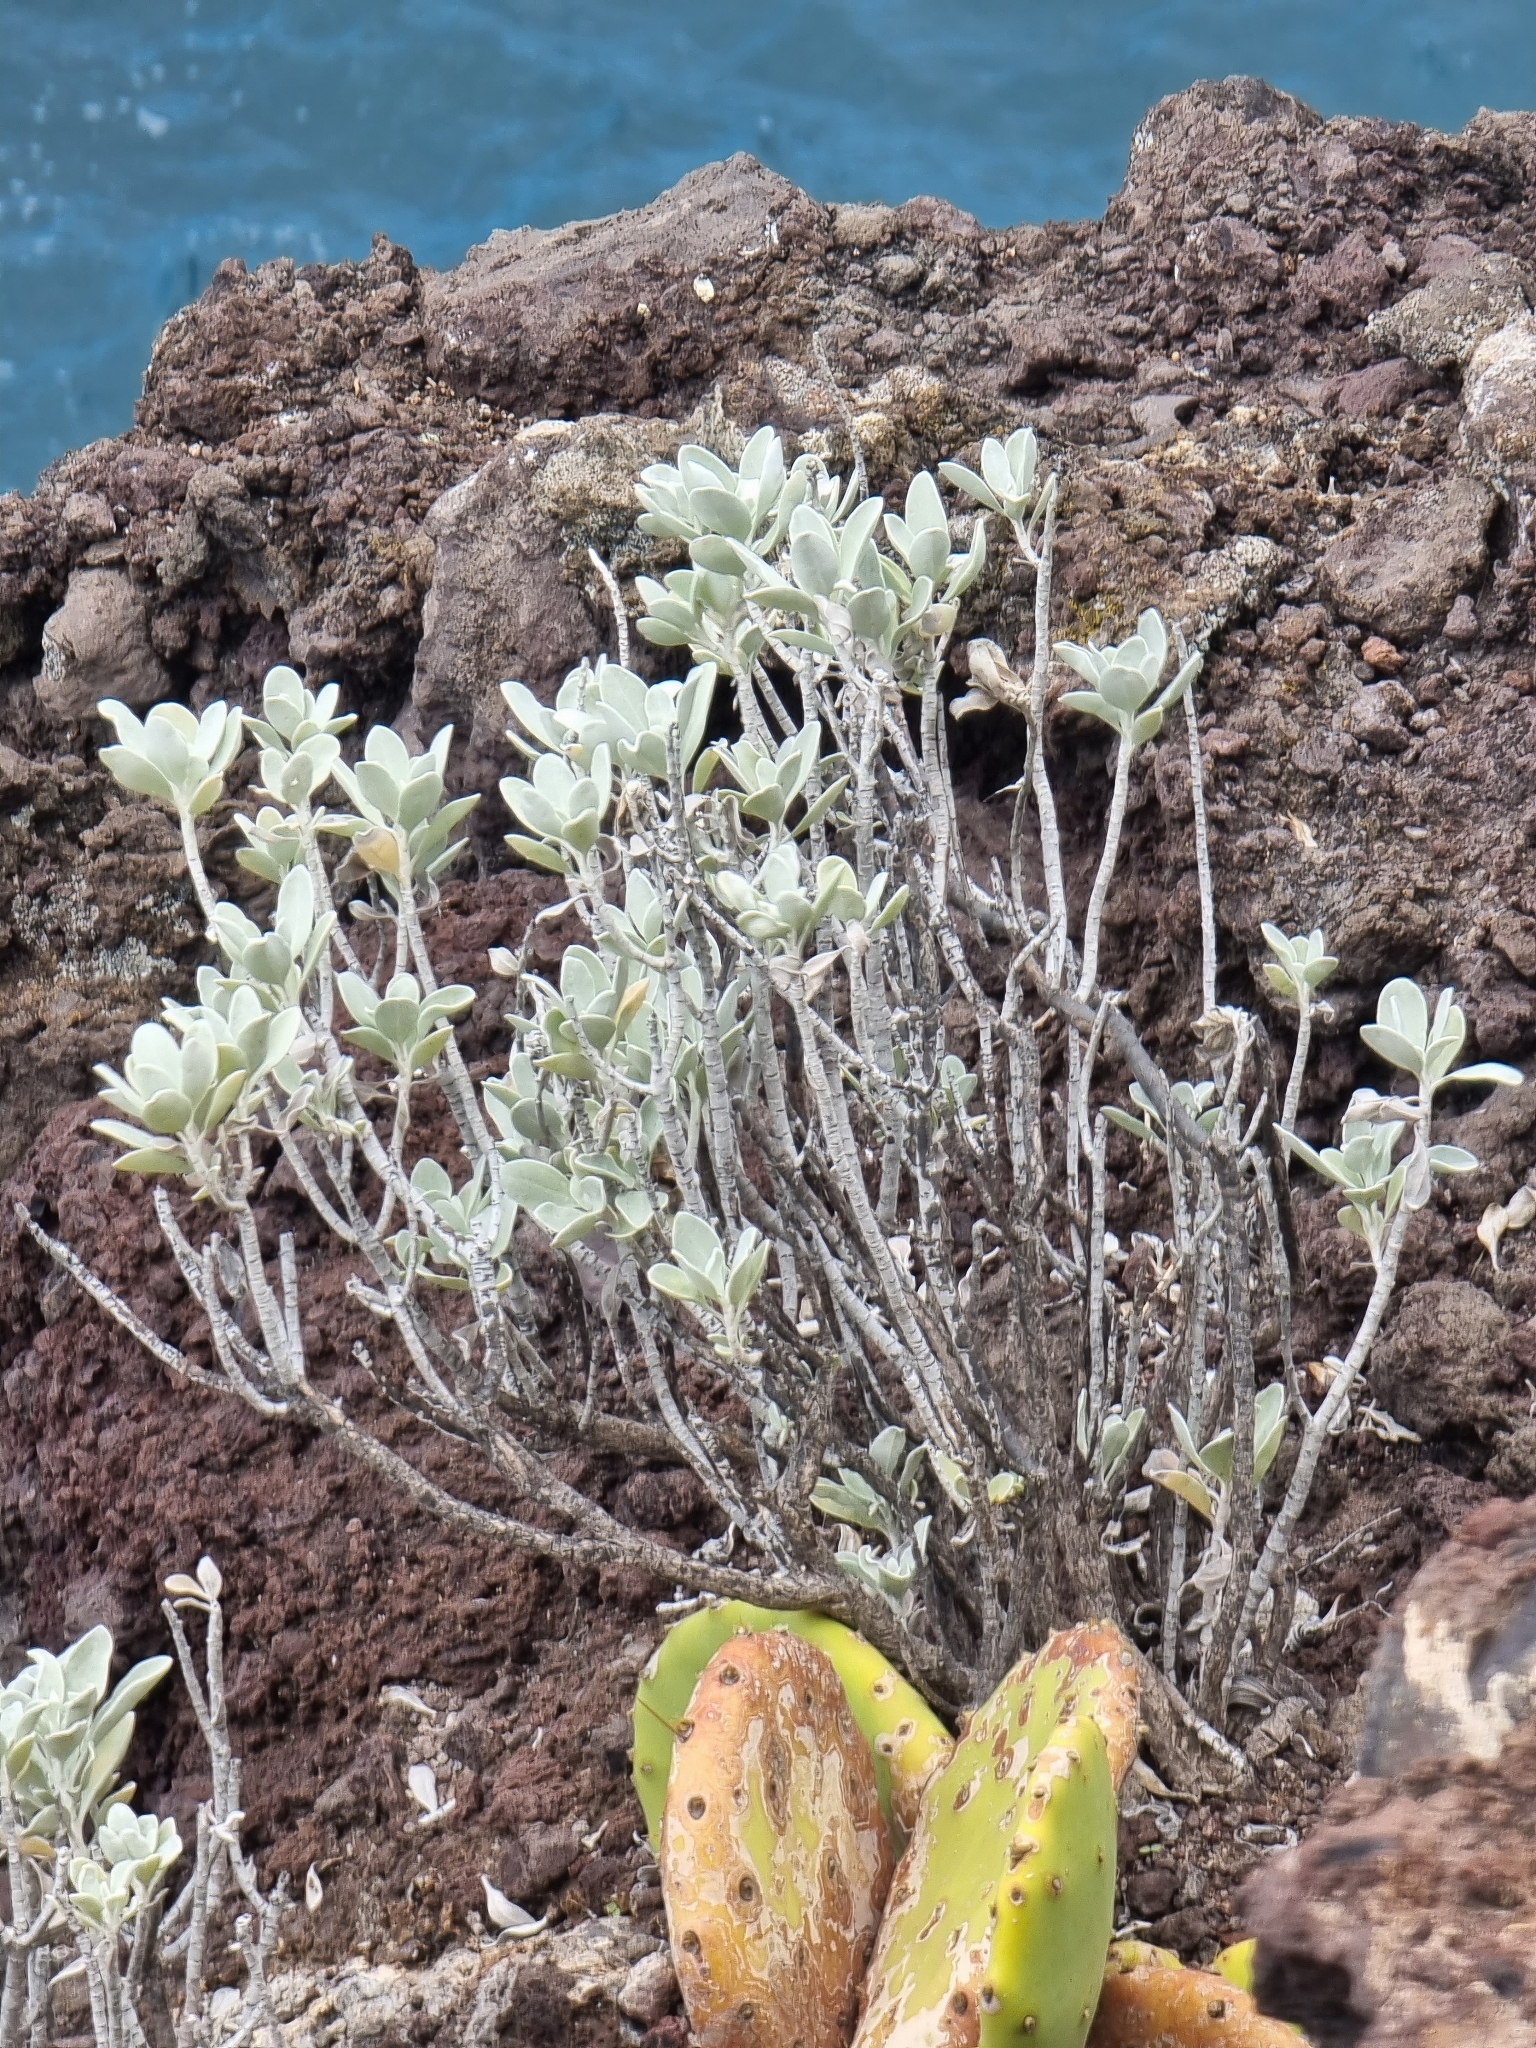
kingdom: Plantae
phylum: Tracheophyta
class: Magnoliopsida
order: Asterales
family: Asteraceae
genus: Helichrysum
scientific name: Helichrysum obconicum
